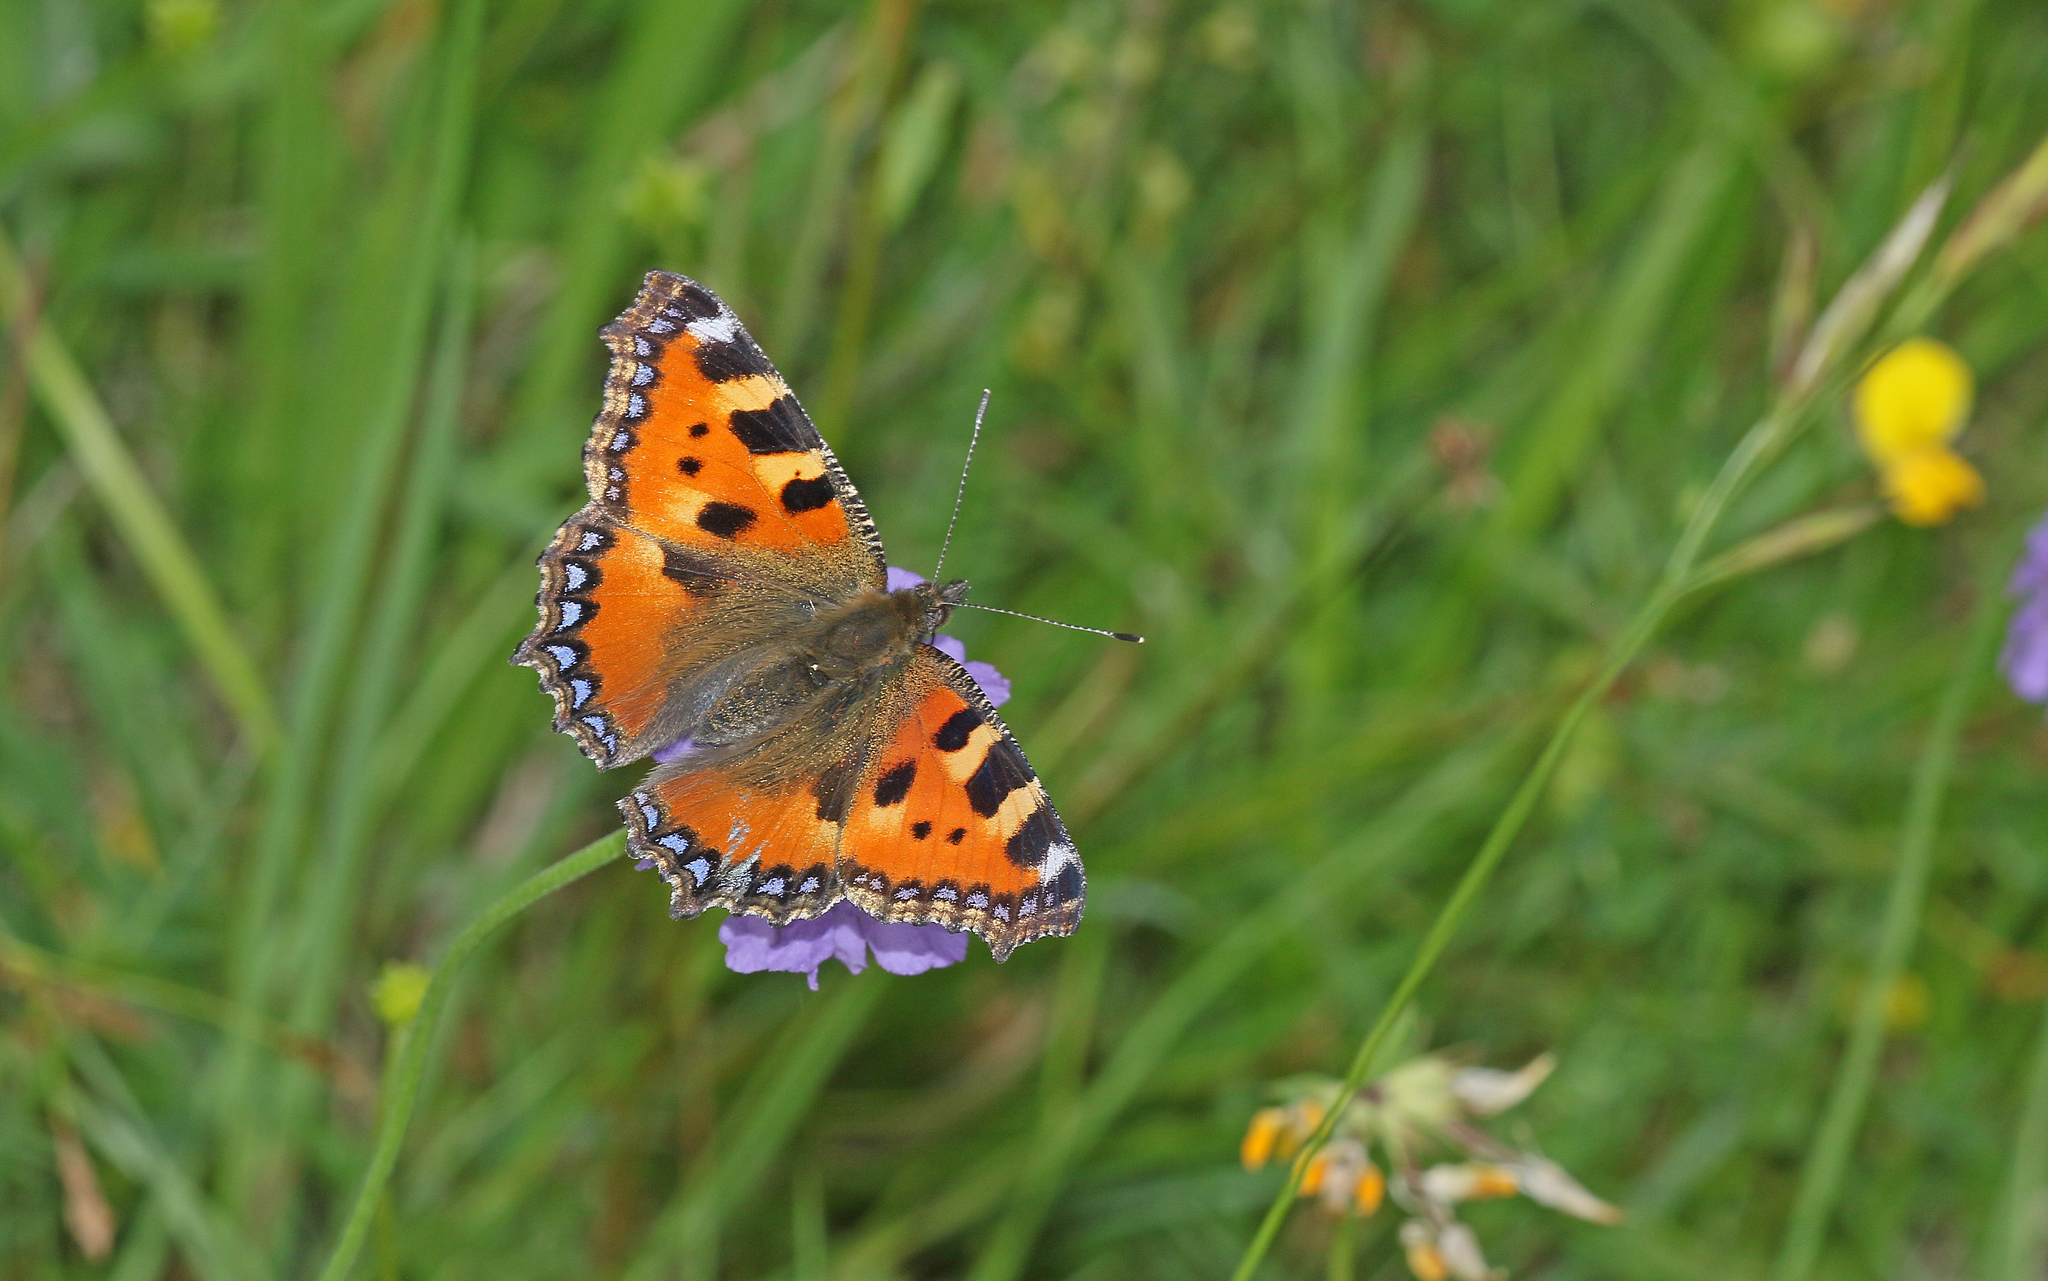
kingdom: Animalia
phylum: Arthropoda
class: Insecta
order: Lepidoptera
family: Nymphalidae
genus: Aglais
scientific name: Aglais urticae
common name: Small tortoiseshell
